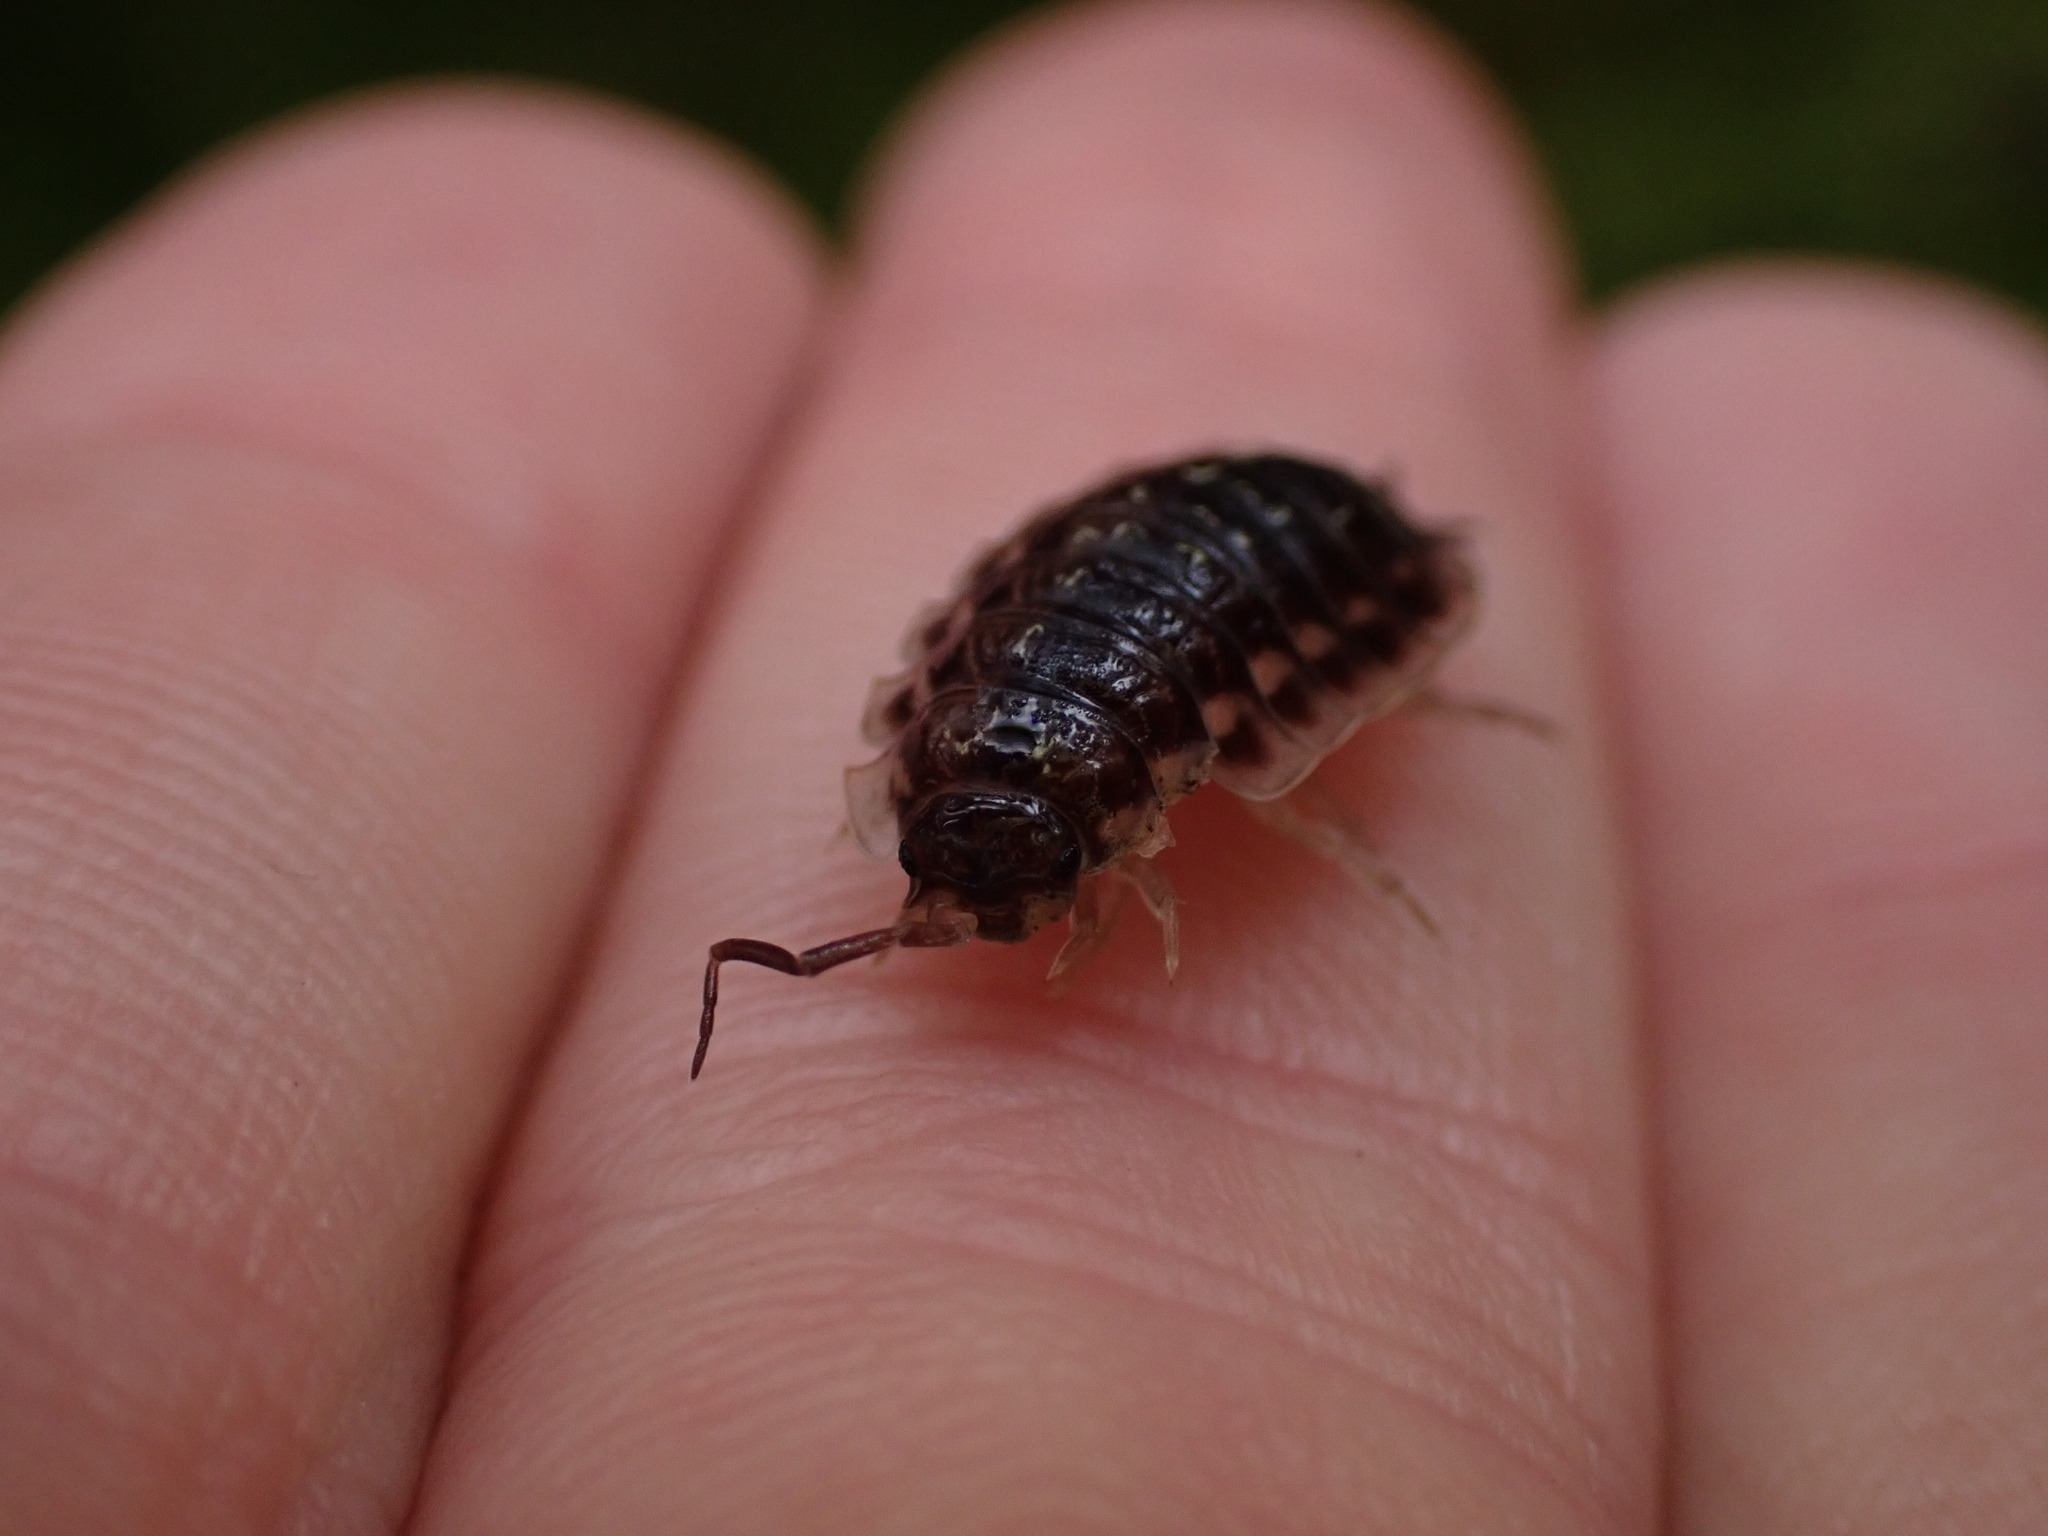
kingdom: Animalia
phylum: Arthropoda
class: Malacostraca
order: Isopoda
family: Oniscidae
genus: Oniscus
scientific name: Oniscus asellus
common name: Common shiny woodlouse
